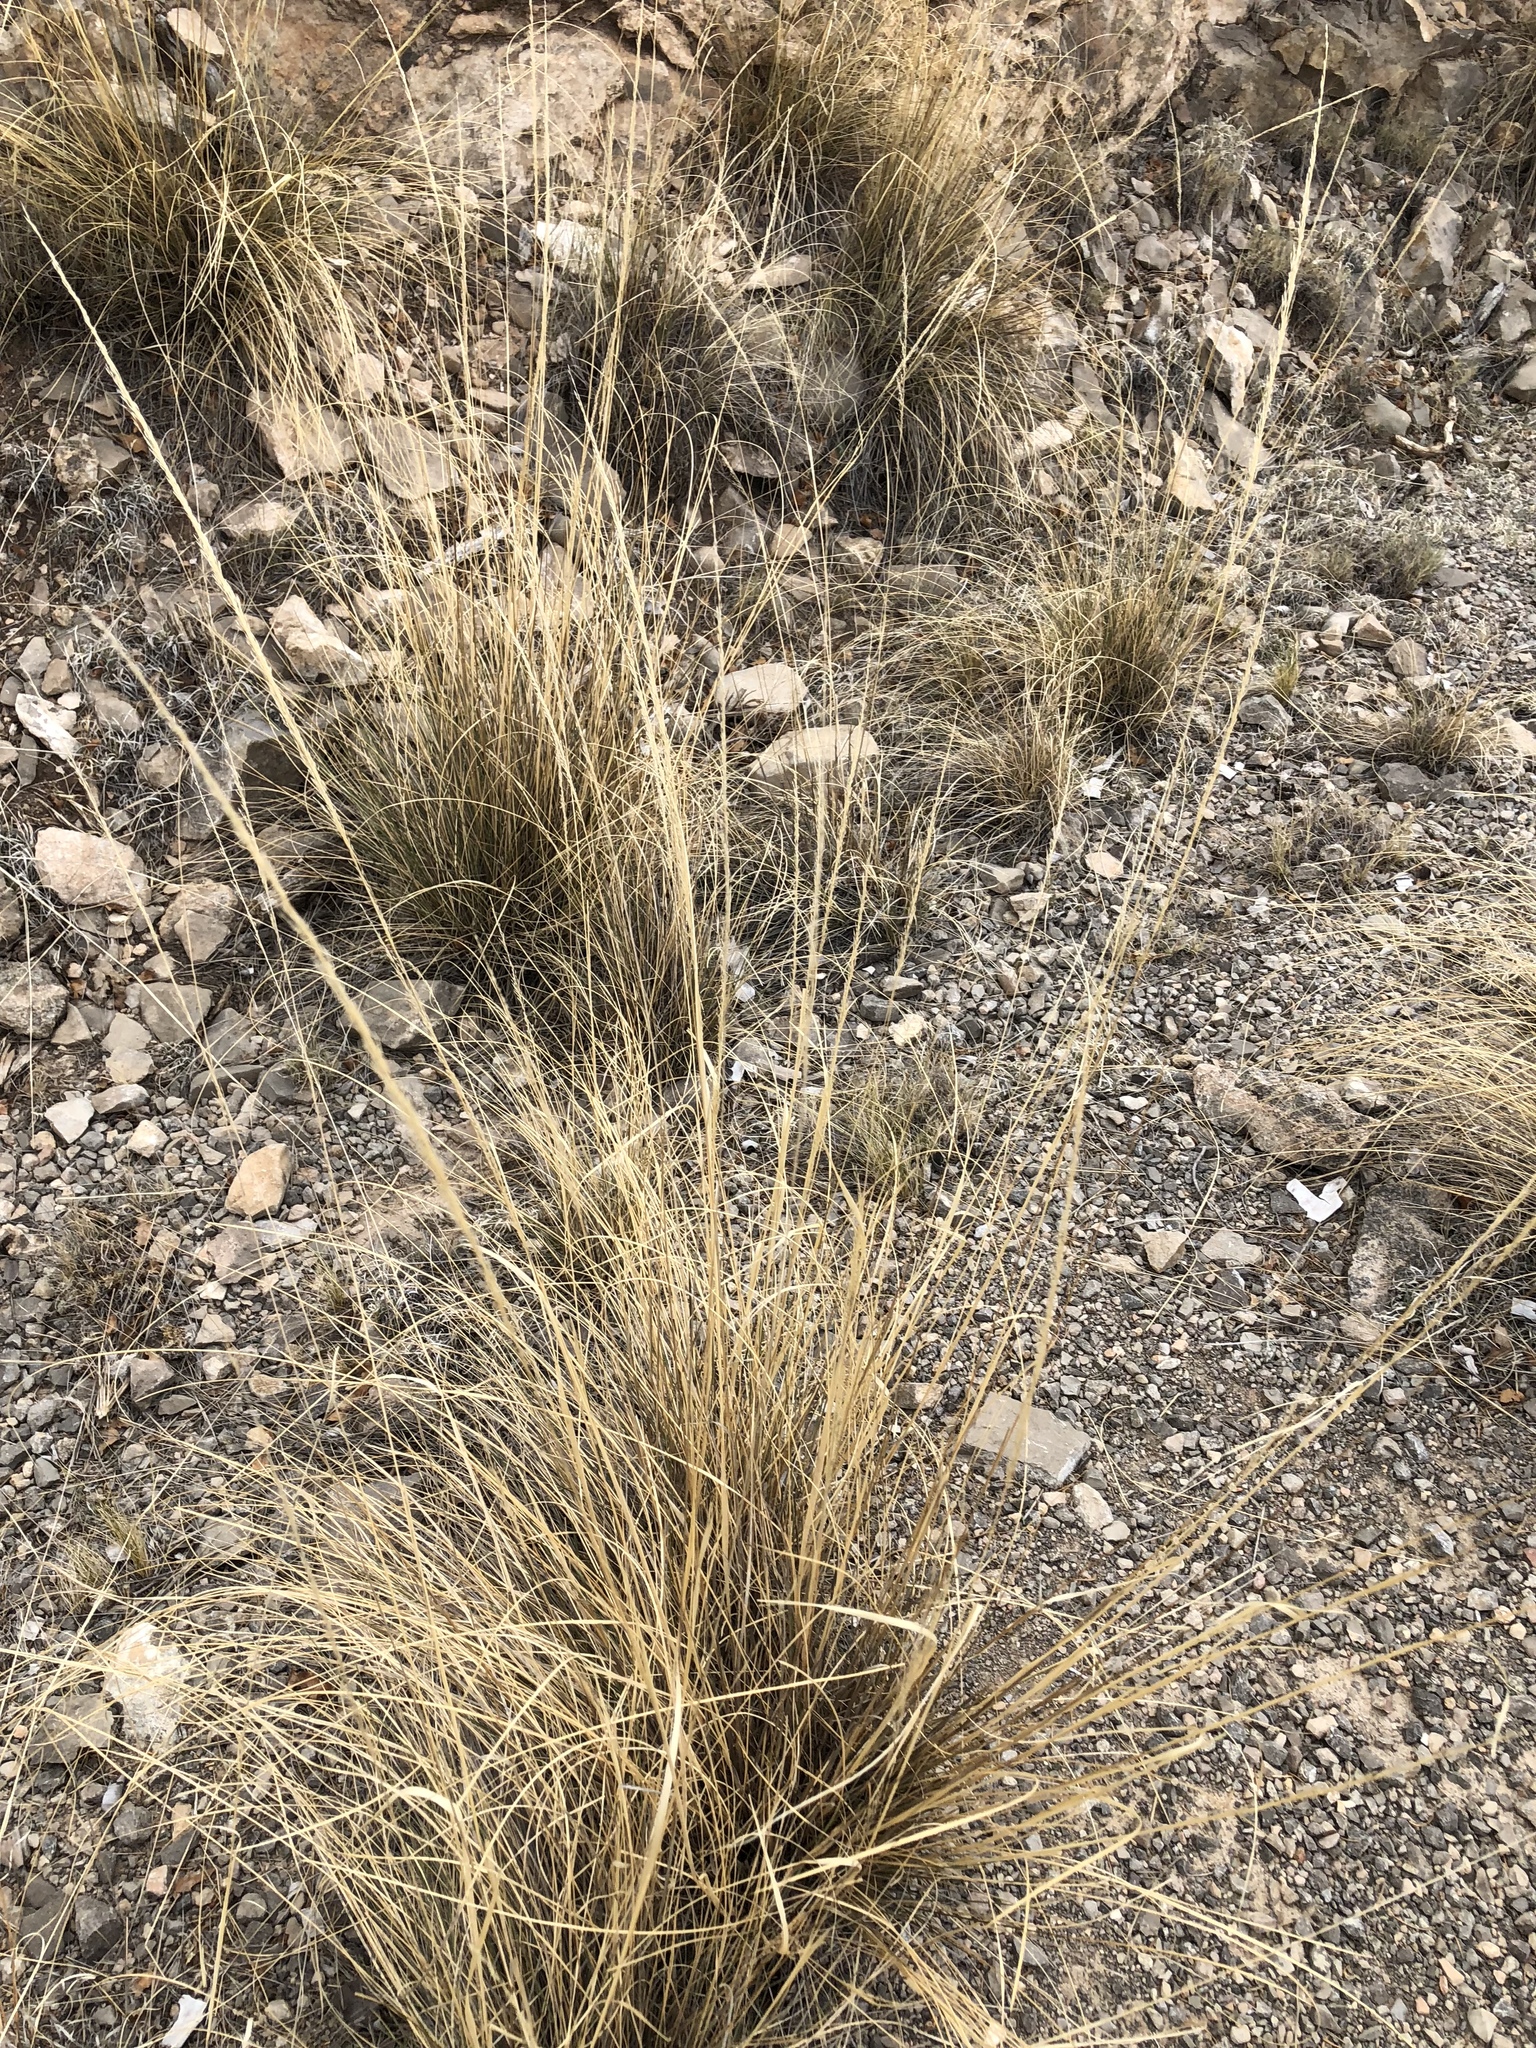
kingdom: Plantae
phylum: Tracheophyta
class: Liliopsida
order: Poales
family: Poaceae
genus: Muhlenbergia
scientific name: Muhlenbergia setifolia
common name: Curly-leaf muhly
